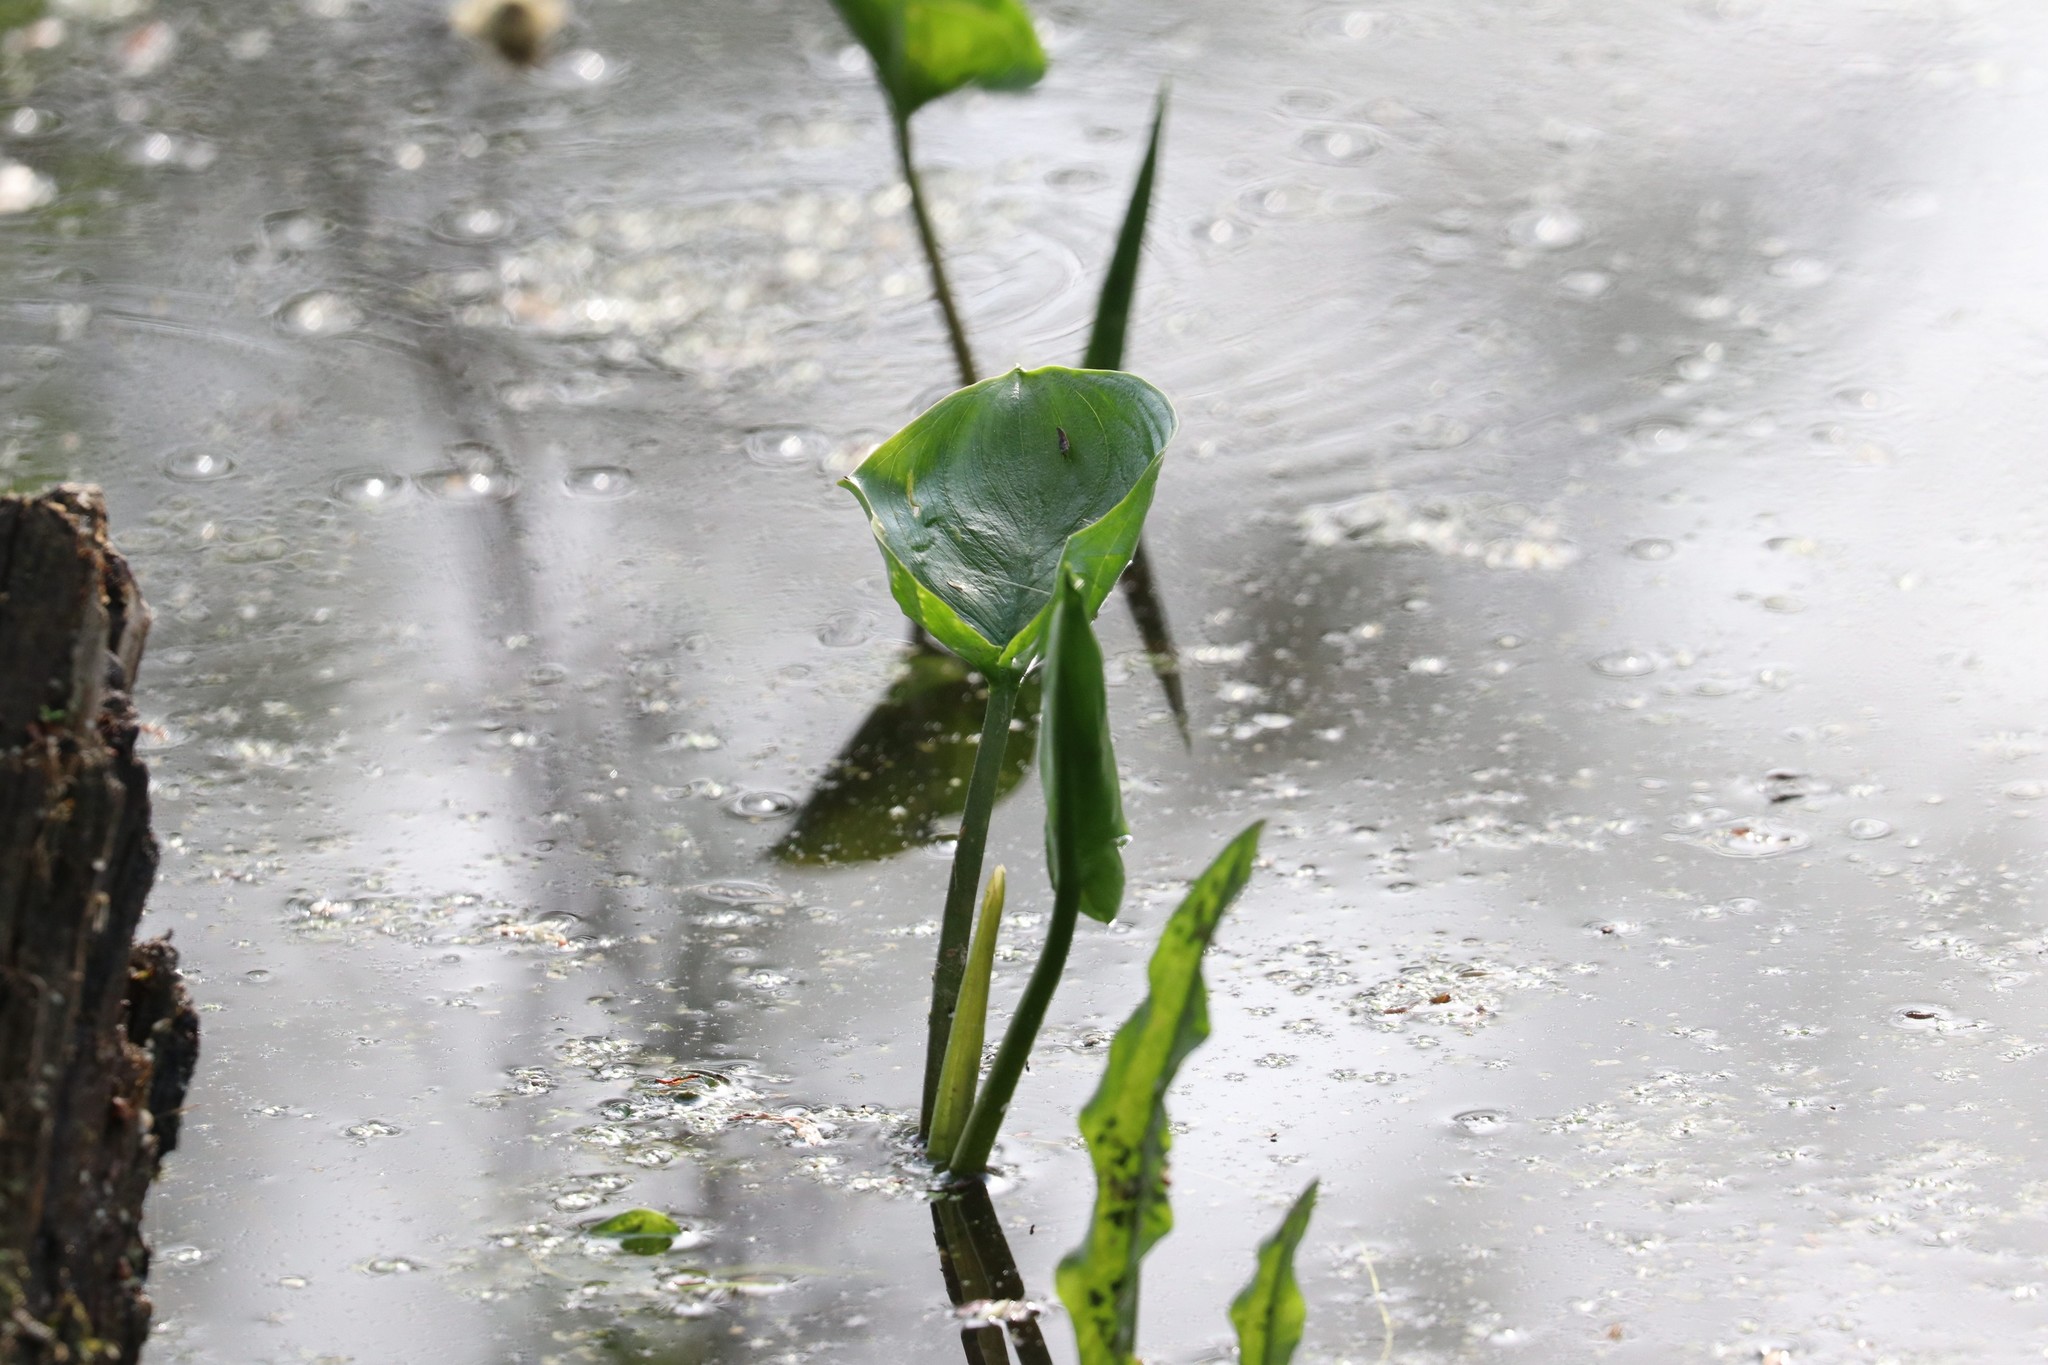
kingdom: Plantae
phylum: Tracheophyta
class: Liliopsida
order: Alismatales
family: Araceae
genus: Calla
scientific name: Calla palustris
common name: Bog arum
